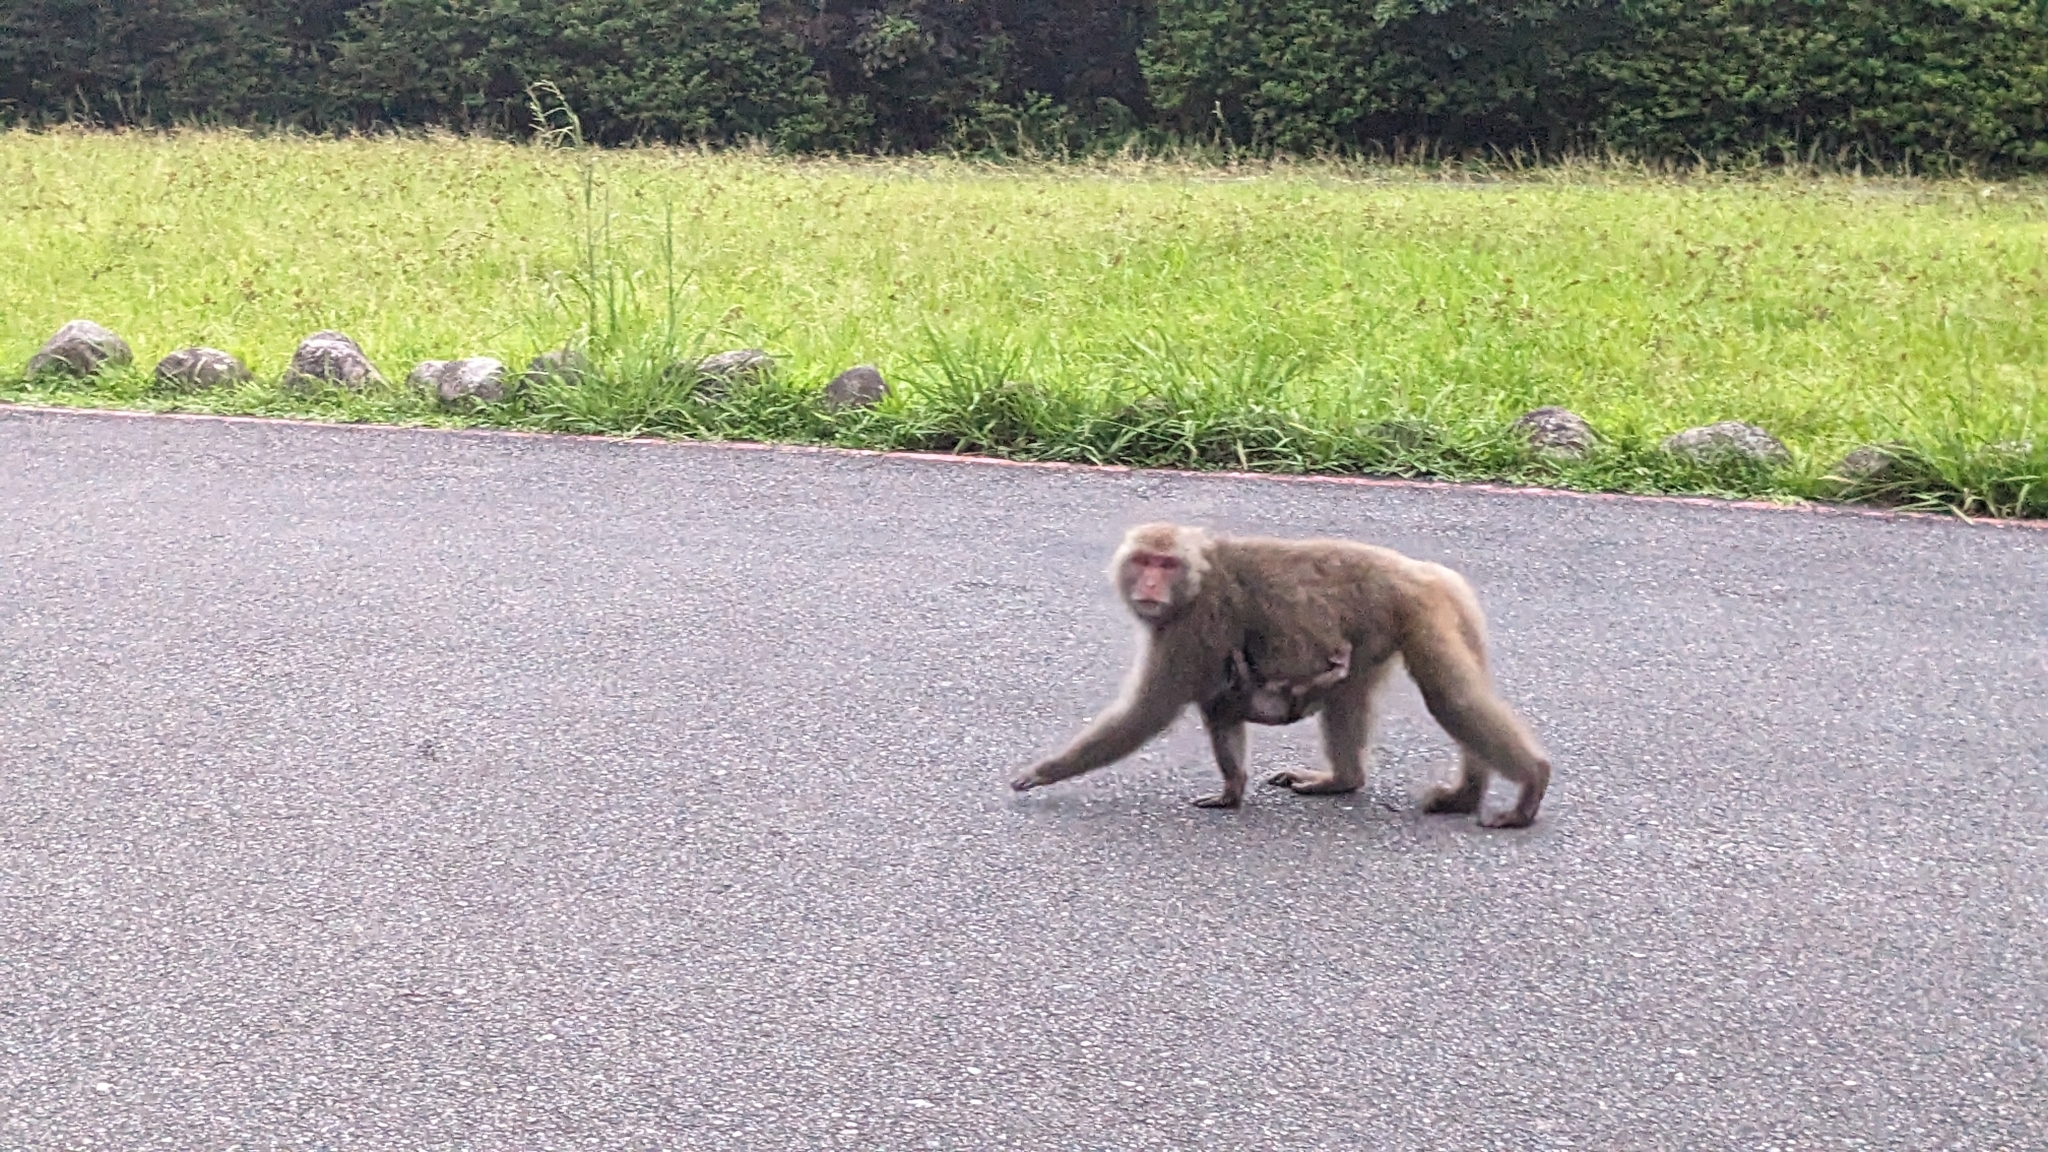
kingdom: Animalia
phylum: Chordata
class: Mammalia
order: Primates
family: Cercopithecidae
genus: Macaca
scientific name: Macaca cyclopis
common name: Formosan rock macaque
